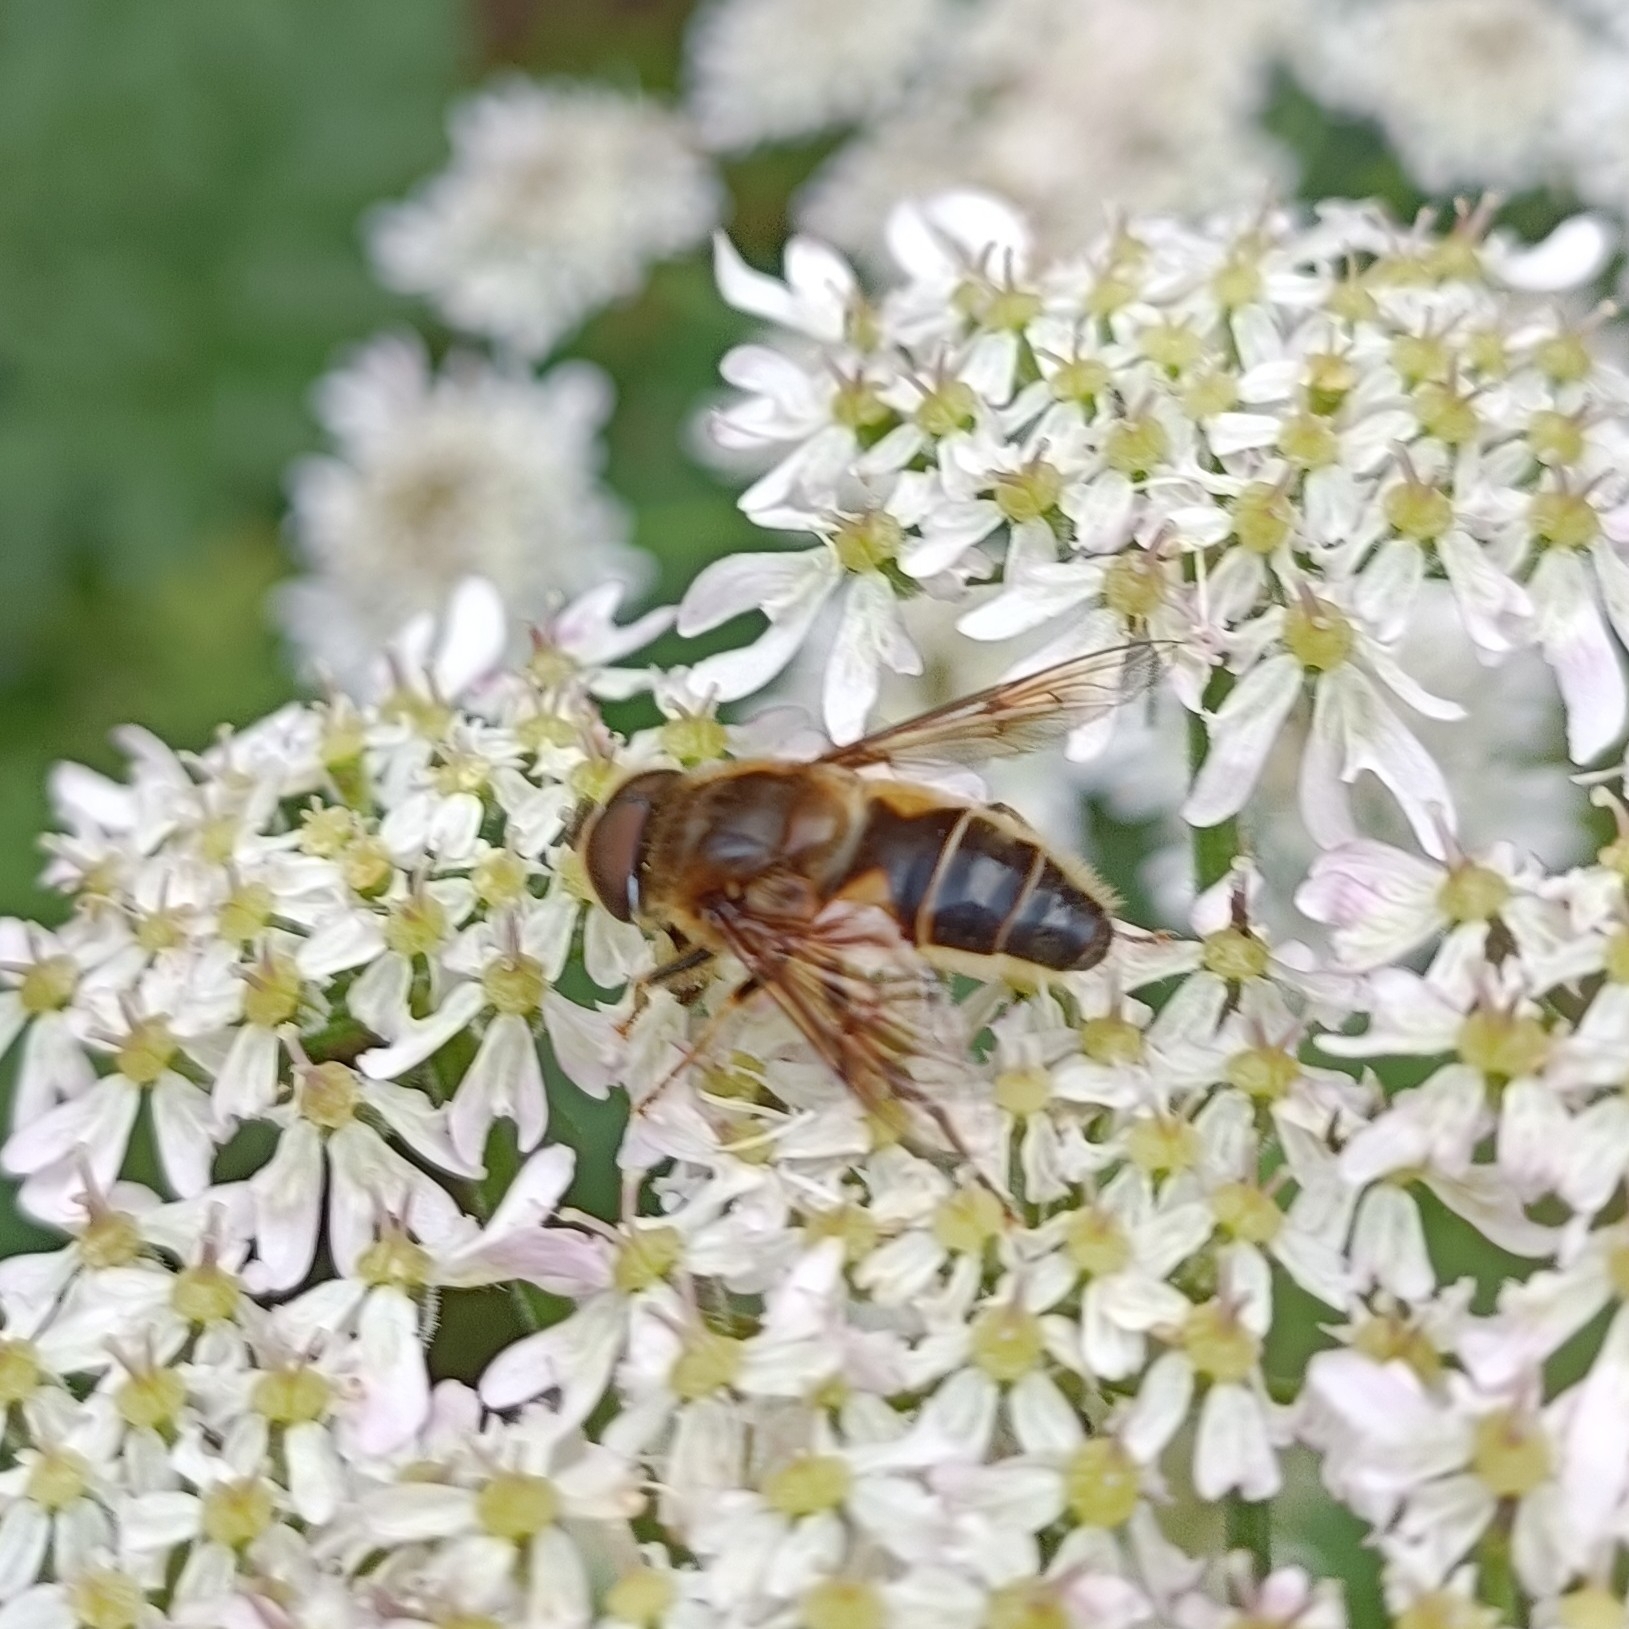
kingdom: Animalia
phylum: Arthropoda
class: Insecta
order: Diptera
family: Syrphidae
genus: Eristalis
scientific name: Eristalis pertinax
